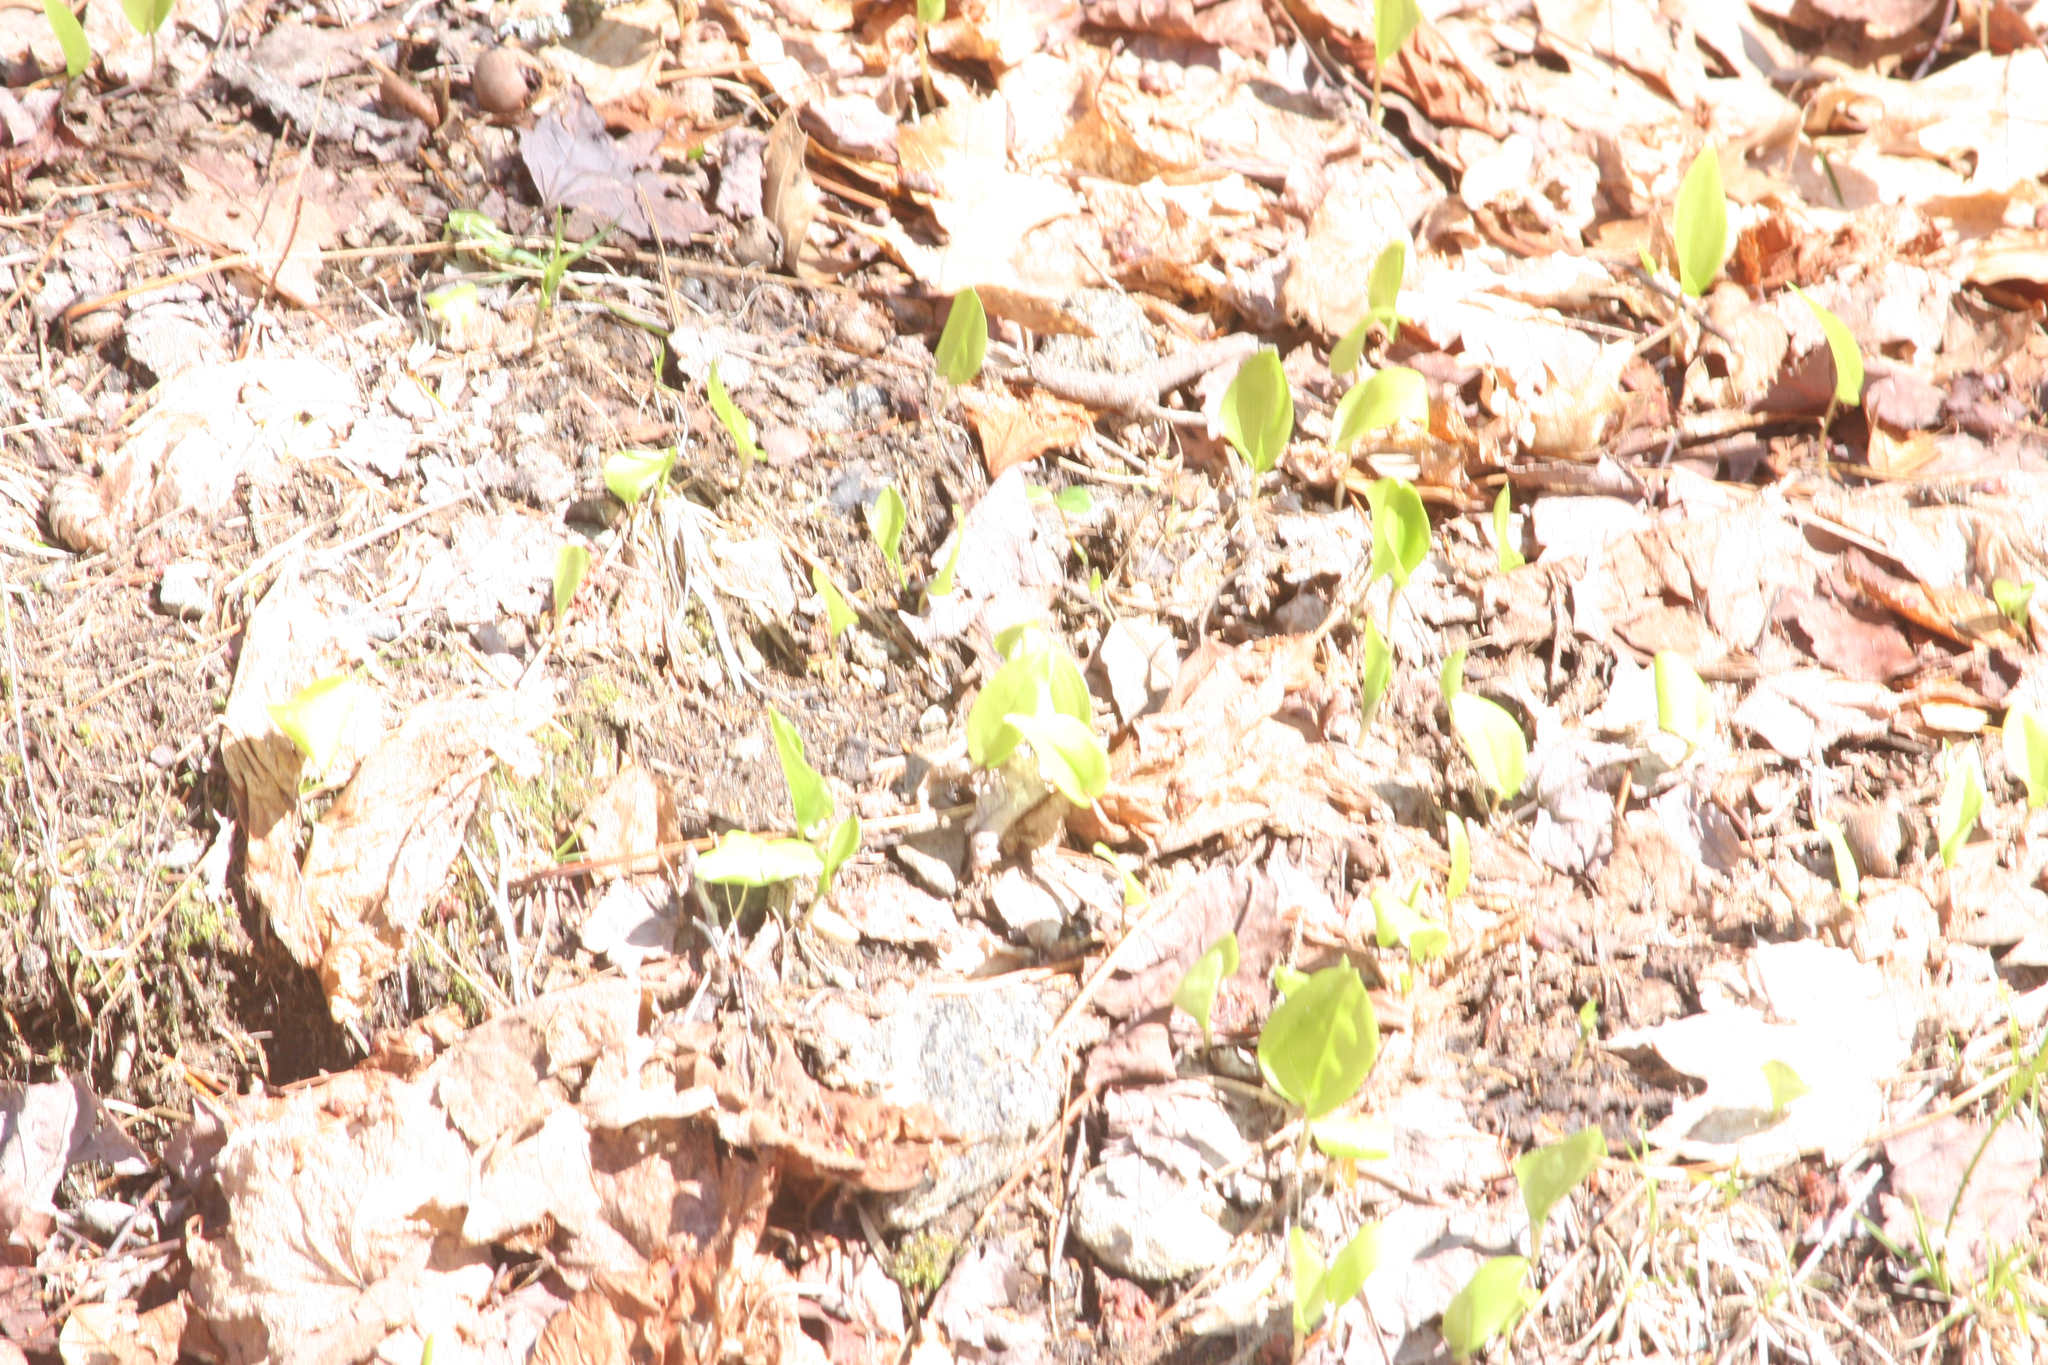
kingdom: Plantae
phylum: Tracheophyta
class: Liliopsida
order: Asparagales
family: Asparagaceae
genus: Maianthemum
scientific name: Maianthemum canadense
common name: False lily-of-the-valley
